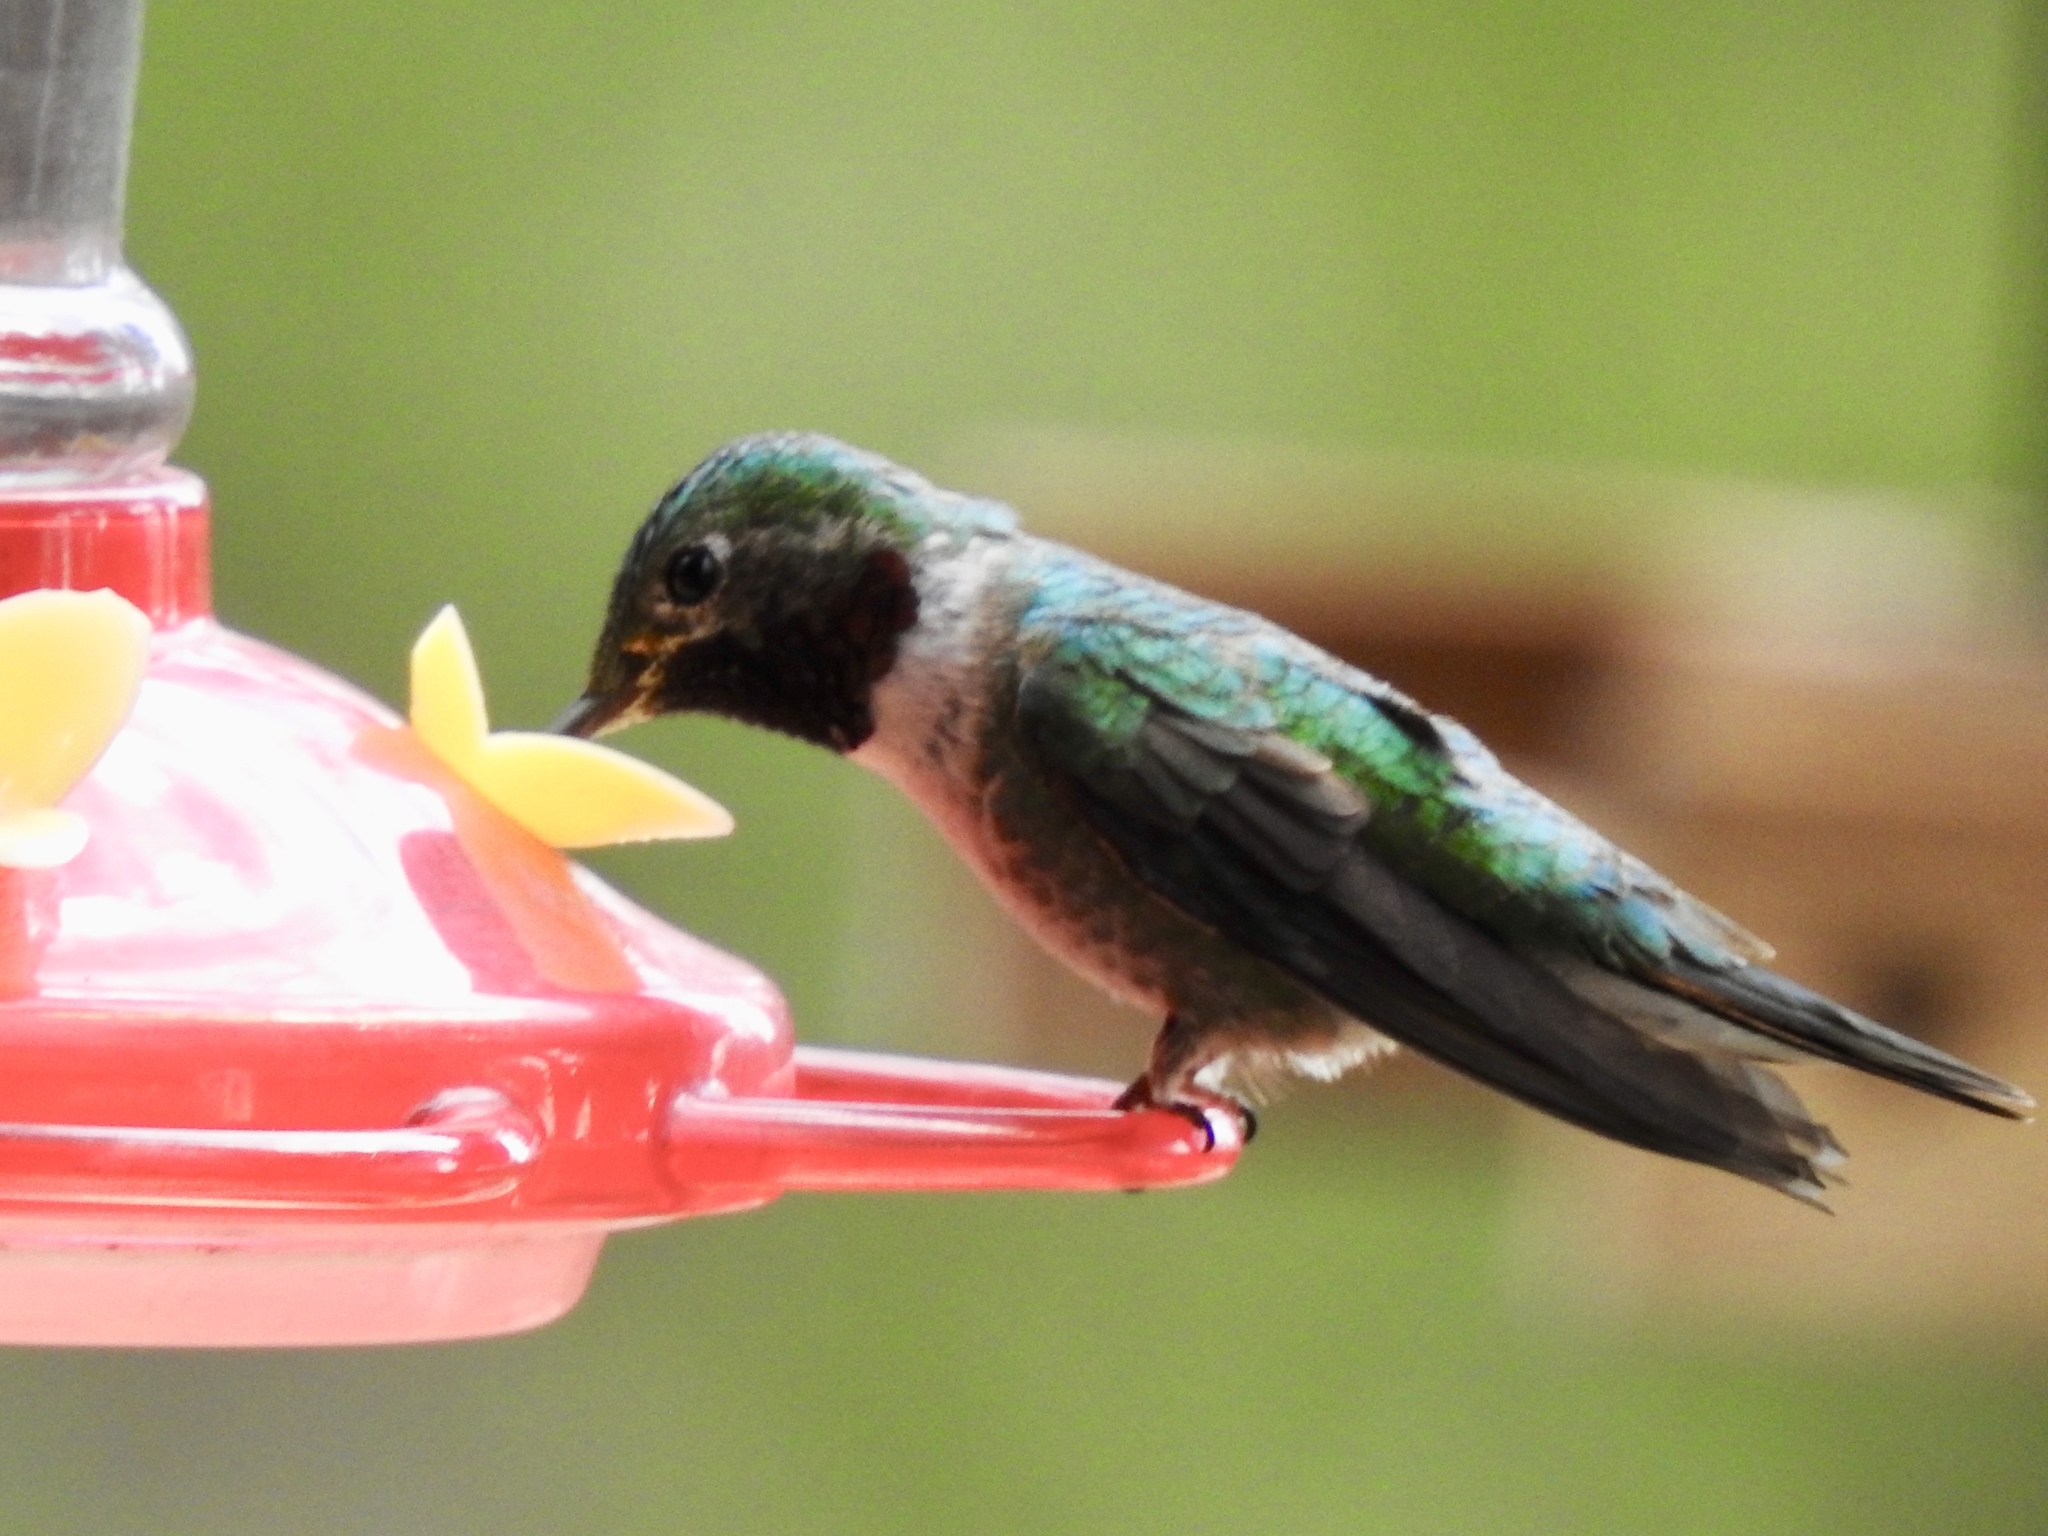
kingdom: Animalia
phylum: Chordata
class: Aves
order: Apodiformes
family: Trochilidae
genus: Selasphorus
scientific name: Selasphorus platycercus
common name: Broad-tailed hummingbird
